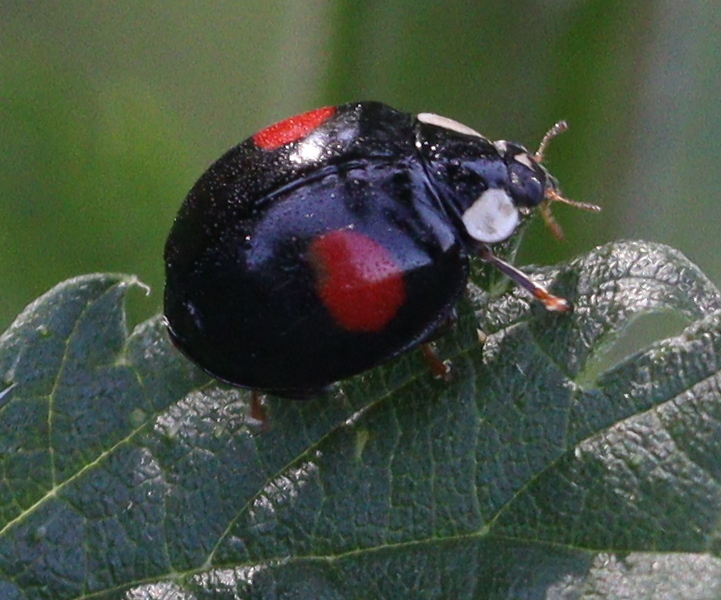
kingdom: Animalia
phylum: Arthropoda
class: Insecta
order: Coleoptera
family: Coccinellidae
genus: Harmonia
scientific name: Harmonia axyridis
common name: Harlequin ladybird
